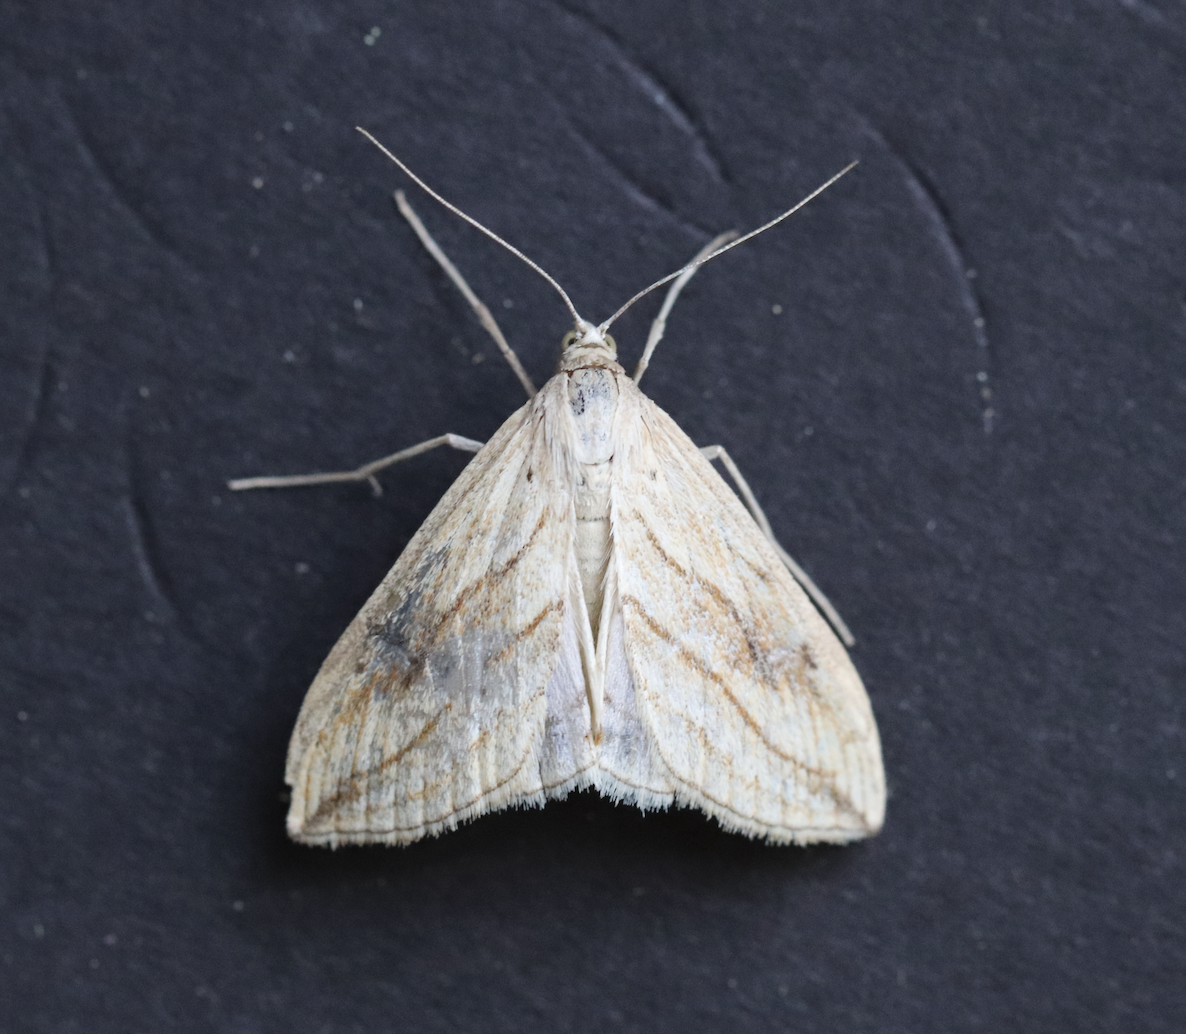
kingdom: Animalia
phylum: Arthropoda
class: Insecta
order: Lepidoptera
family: Crambidae
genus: Evergestis
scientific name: Evergestis forficalis
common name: Garden pebble
